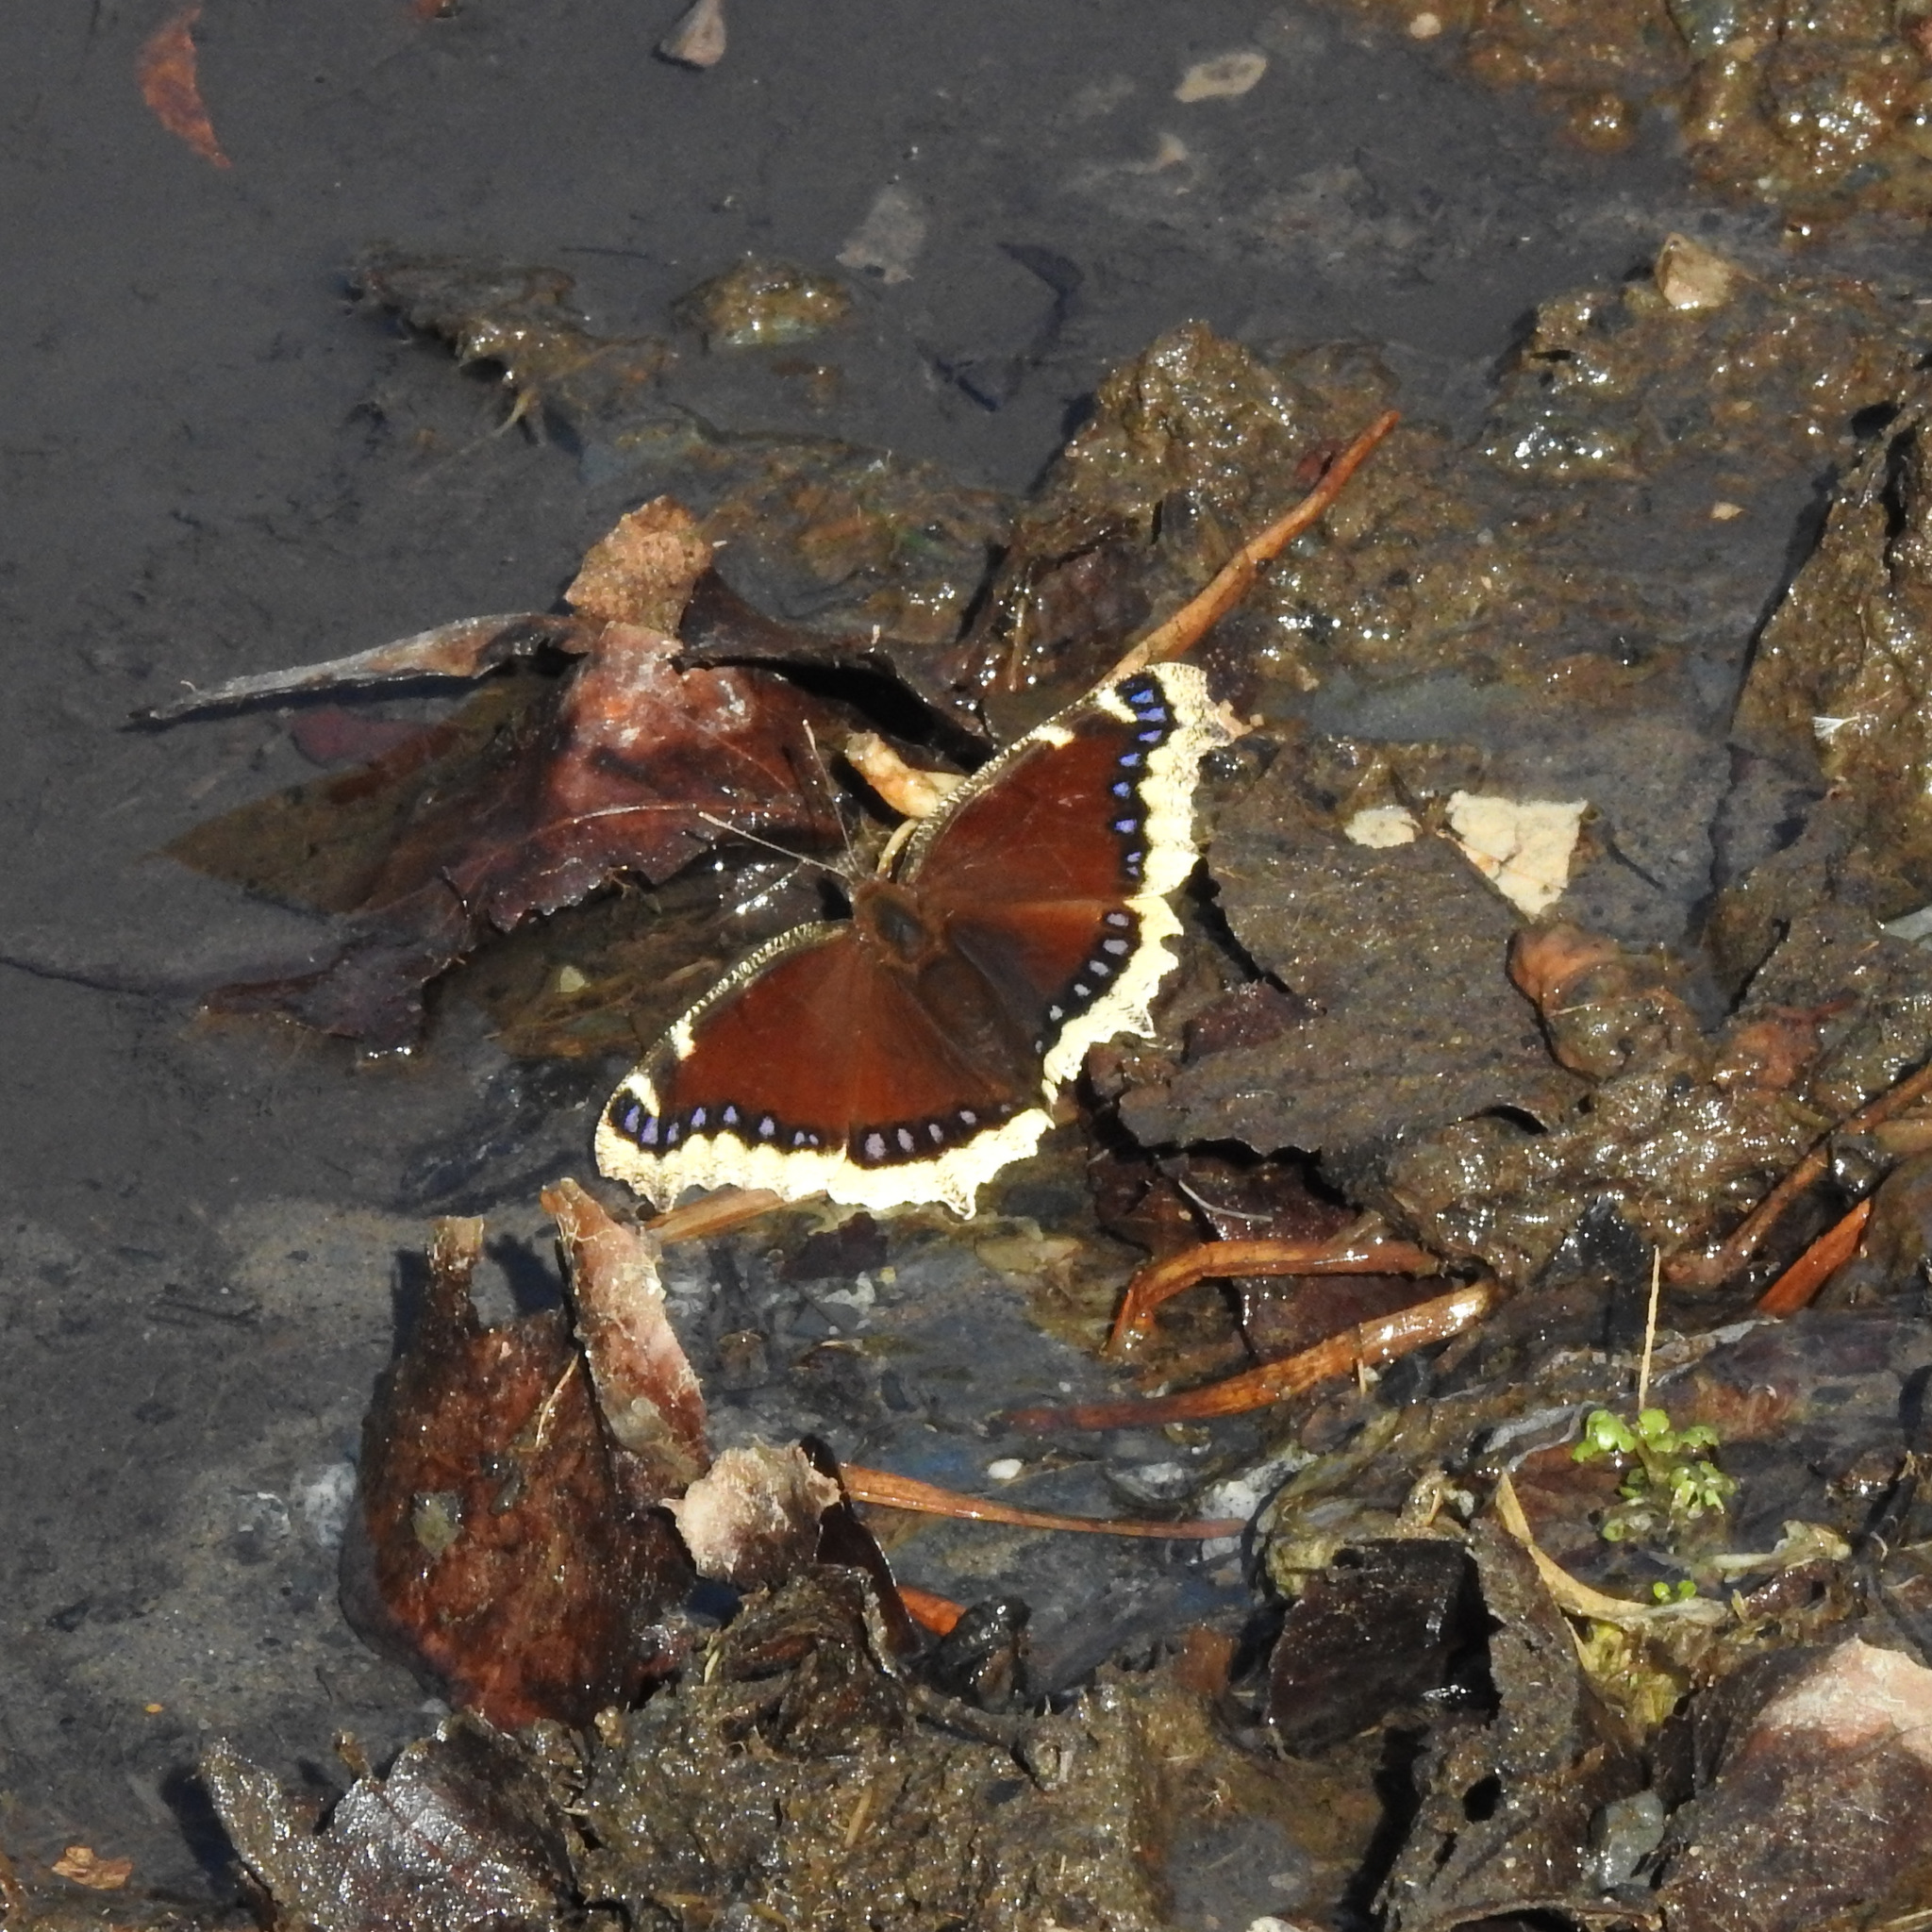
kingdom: Animalia
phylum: Arthropoda
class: Insecta
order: Lepidoptera
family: Nymphalidae
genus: Nymphalis
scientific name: Nymphalis antiopa
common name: Camberwell beauty
